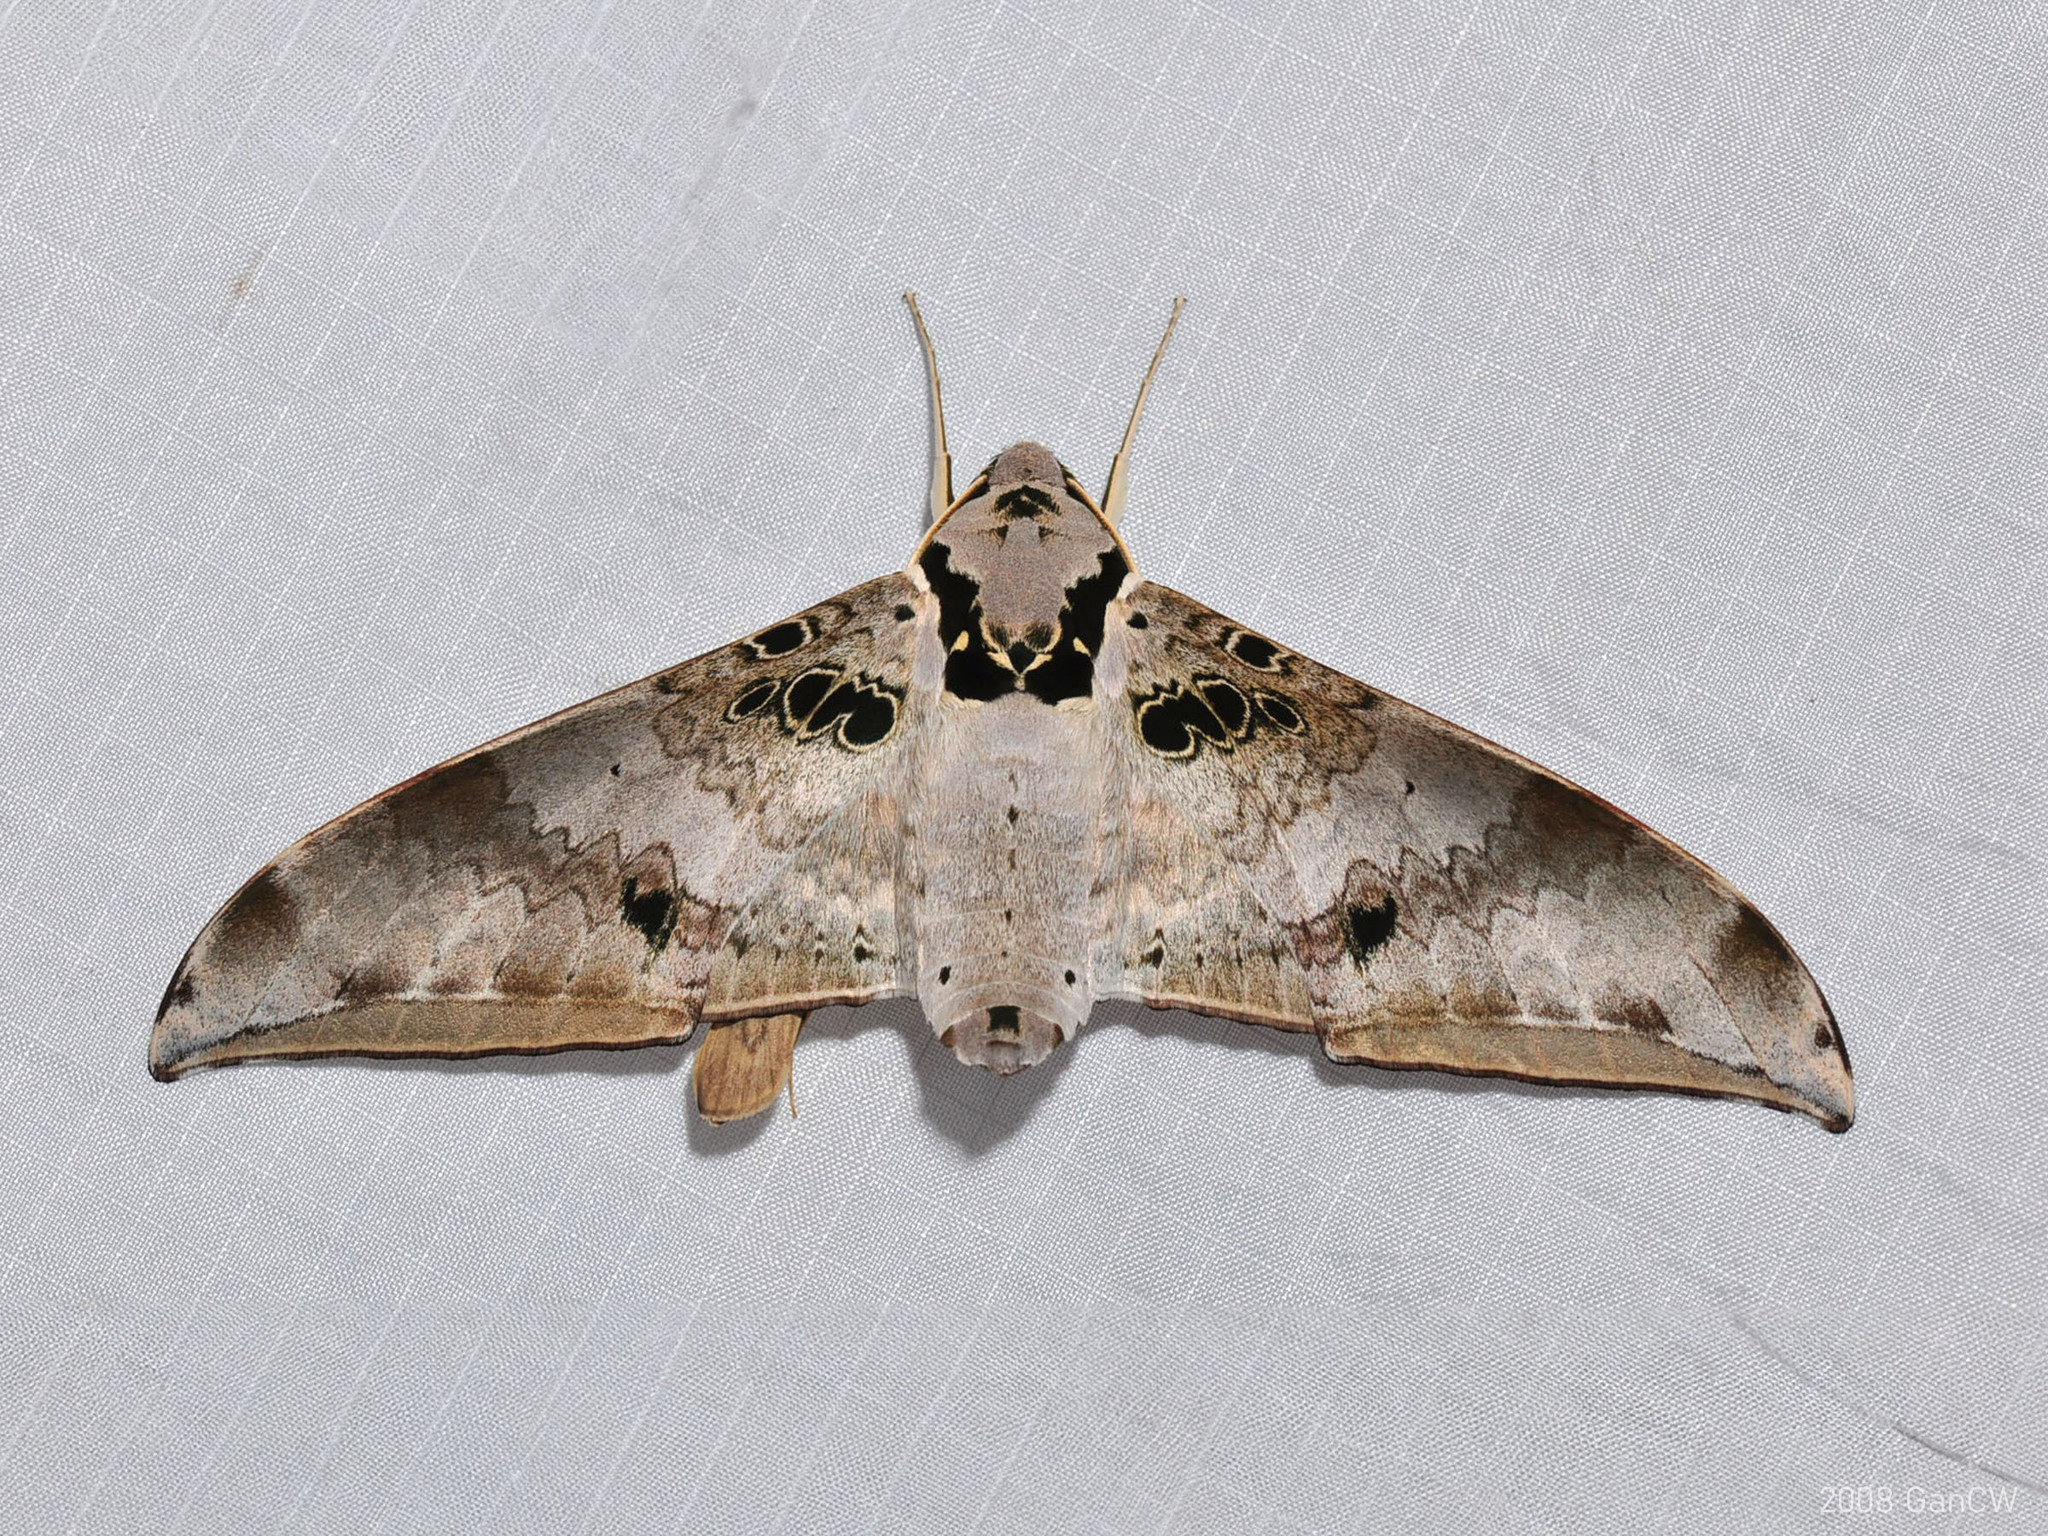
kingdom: Animalia
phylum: Arthropoda
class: Insecta
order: Lepidoptera
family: Sphingidae
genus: Ambulyx
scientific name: Ambulyx canescens
